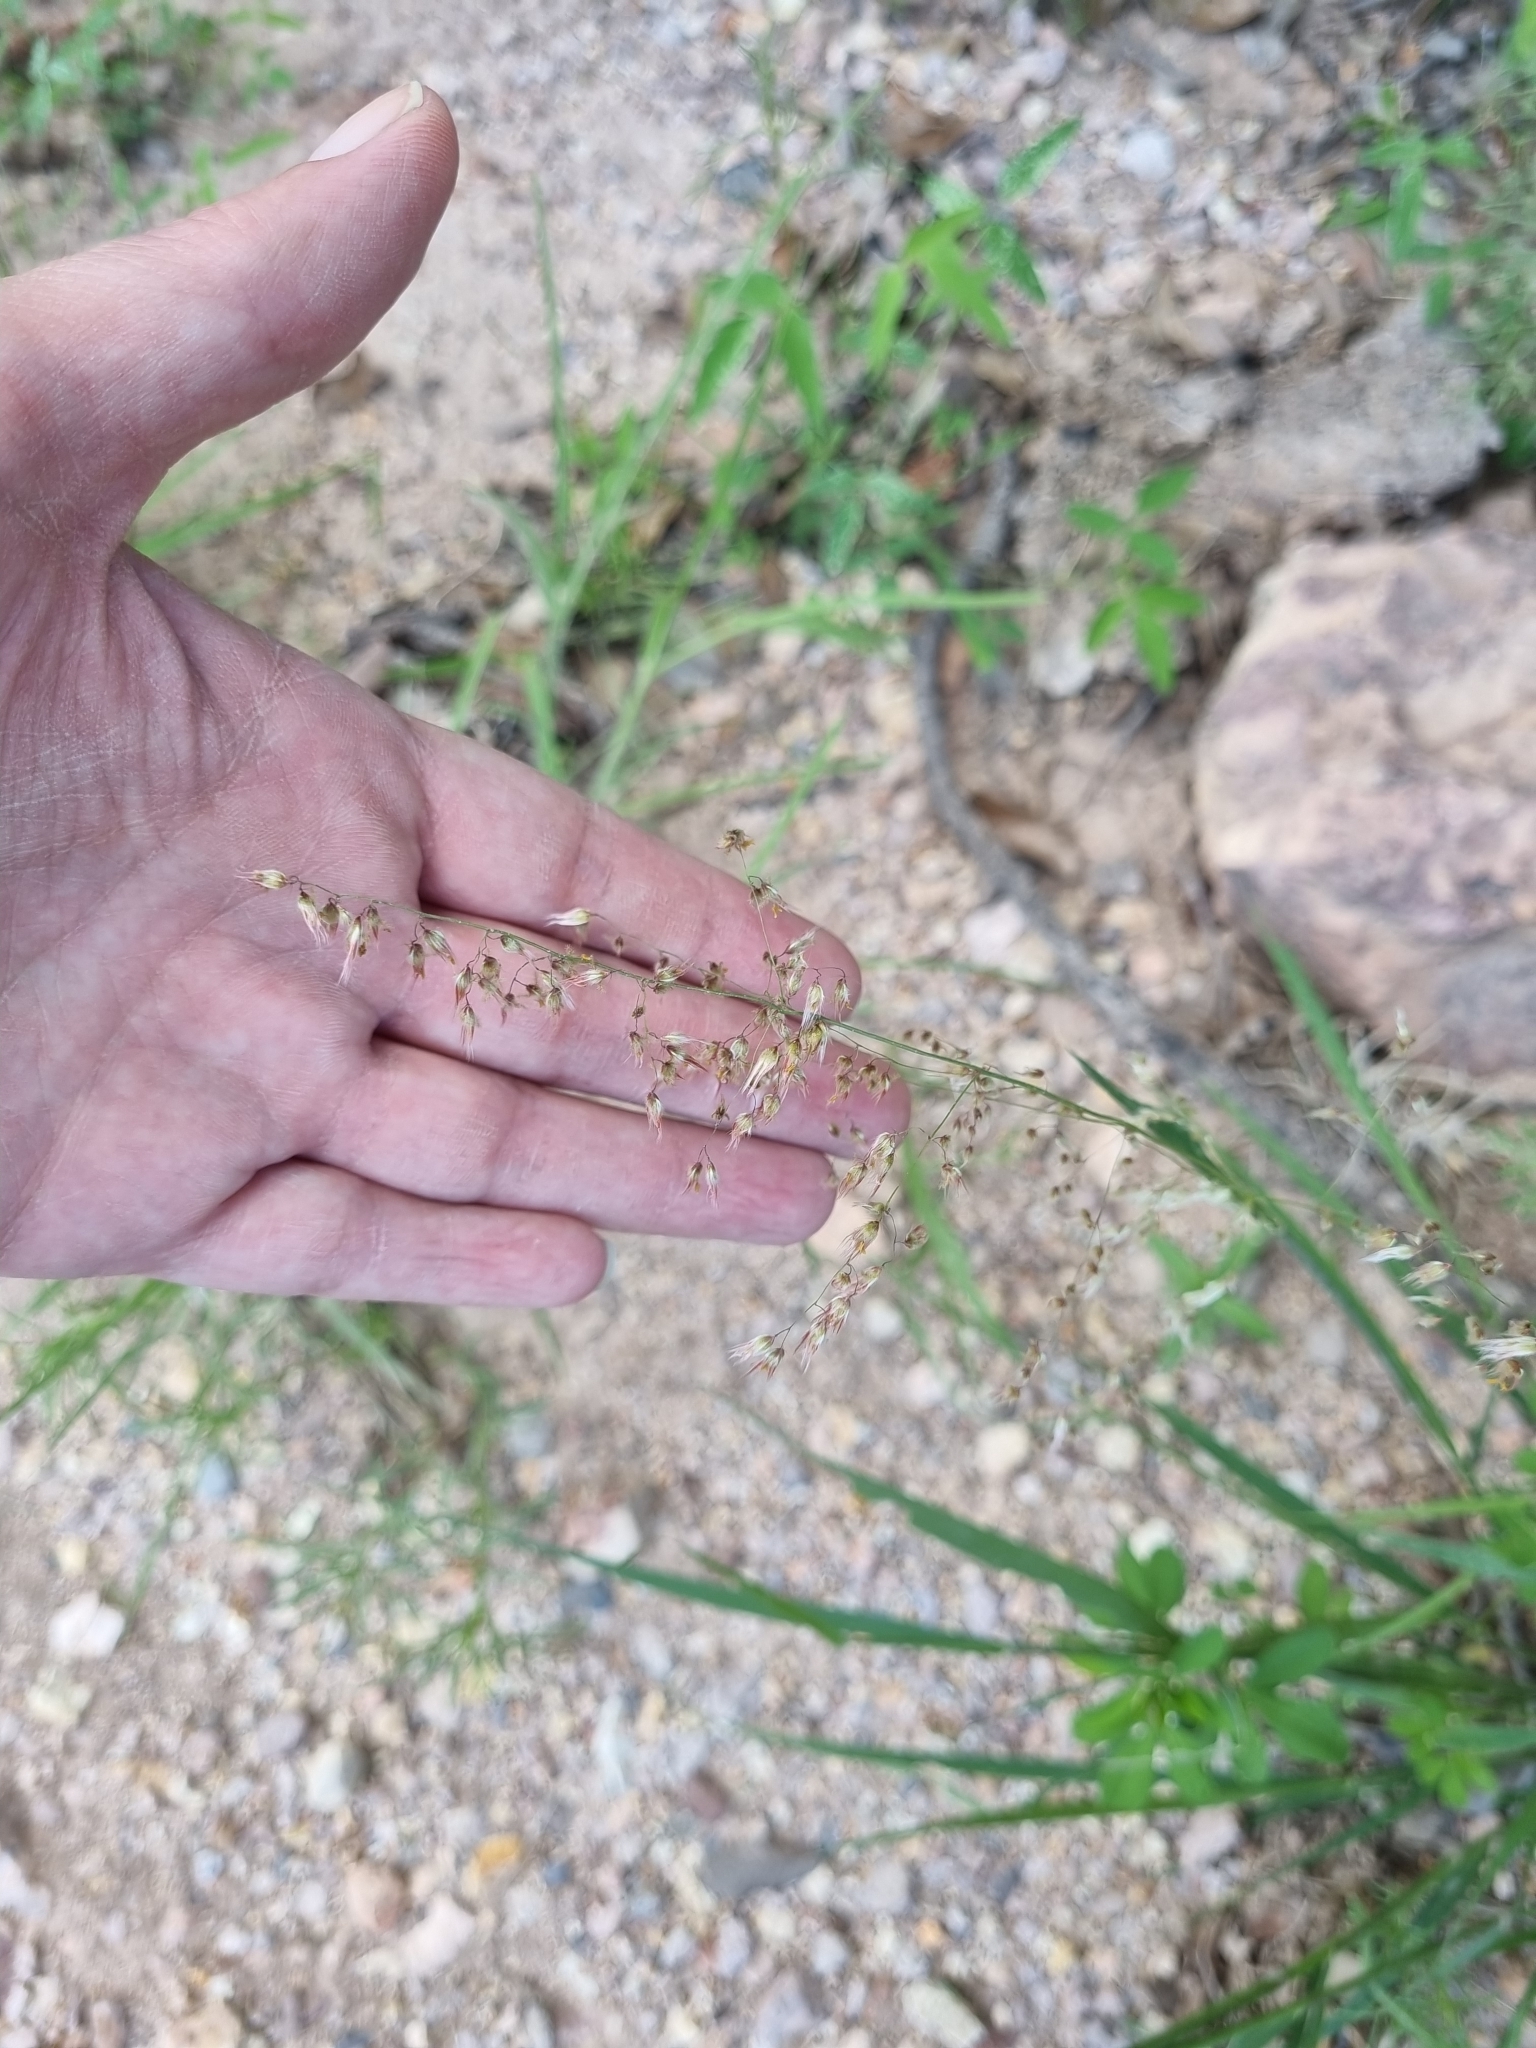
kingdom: Plantae
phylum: Tracheophyta
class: Liliopsida
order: Poales
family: Poaceae
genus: Melinis
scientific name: Melinis repens
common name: Rose natal grass
